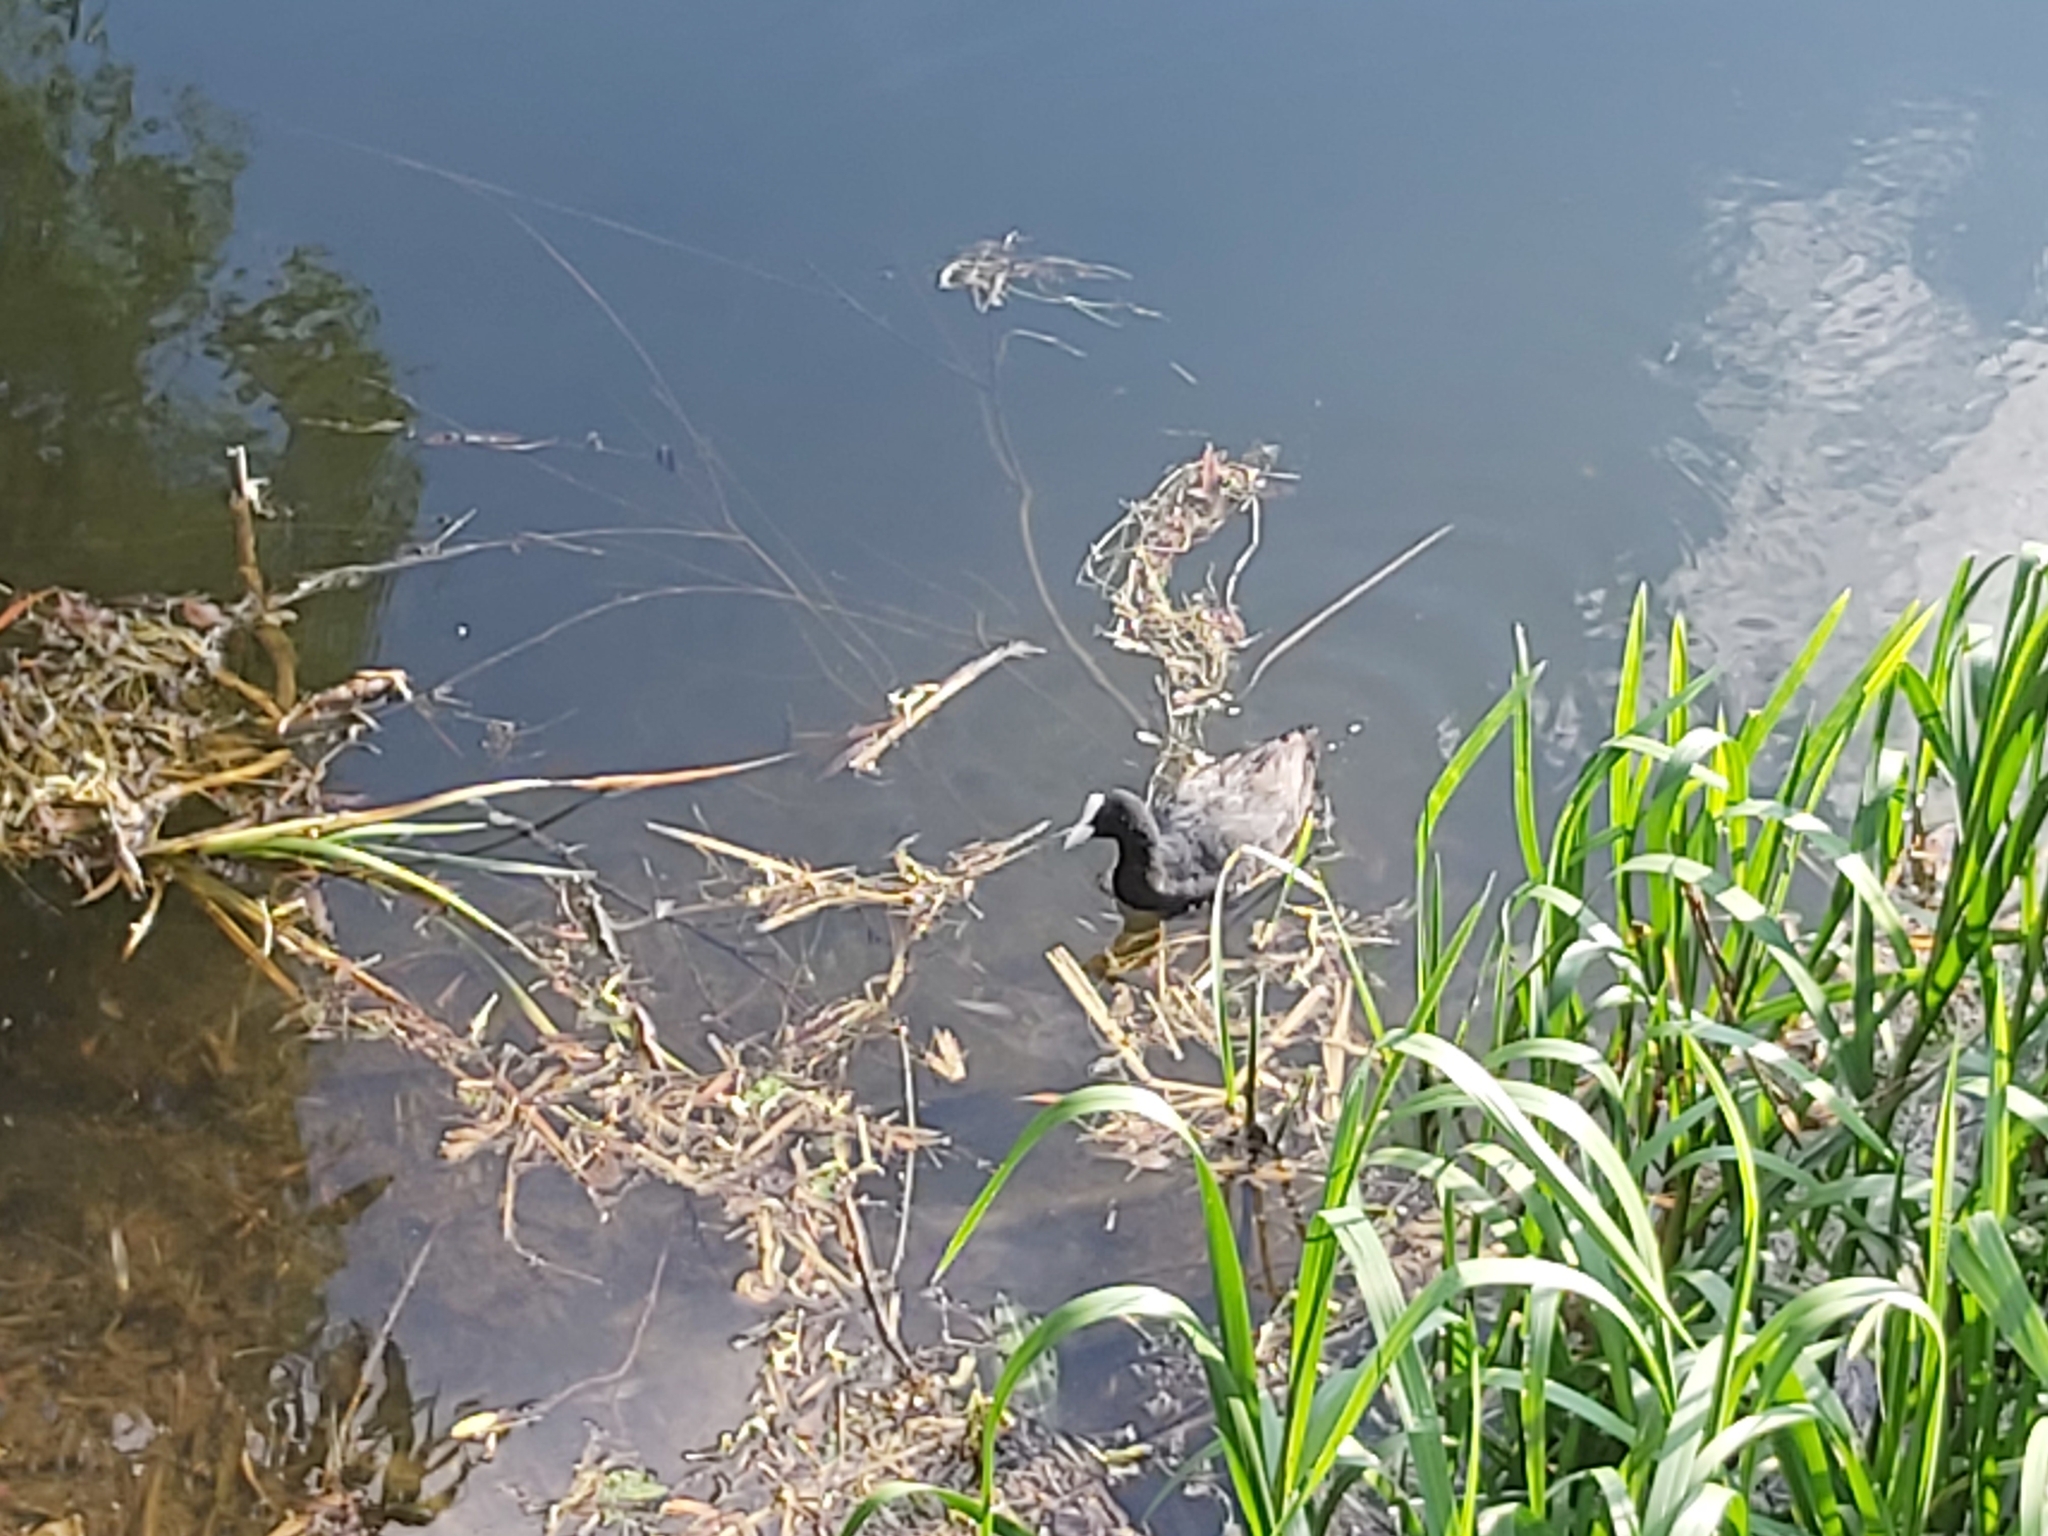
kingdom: Animalia
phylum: Chordata
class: Aves
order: Gruiformes
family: Rallidae
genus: Fulica
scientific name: Fulica atra
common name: Eurasian coot
